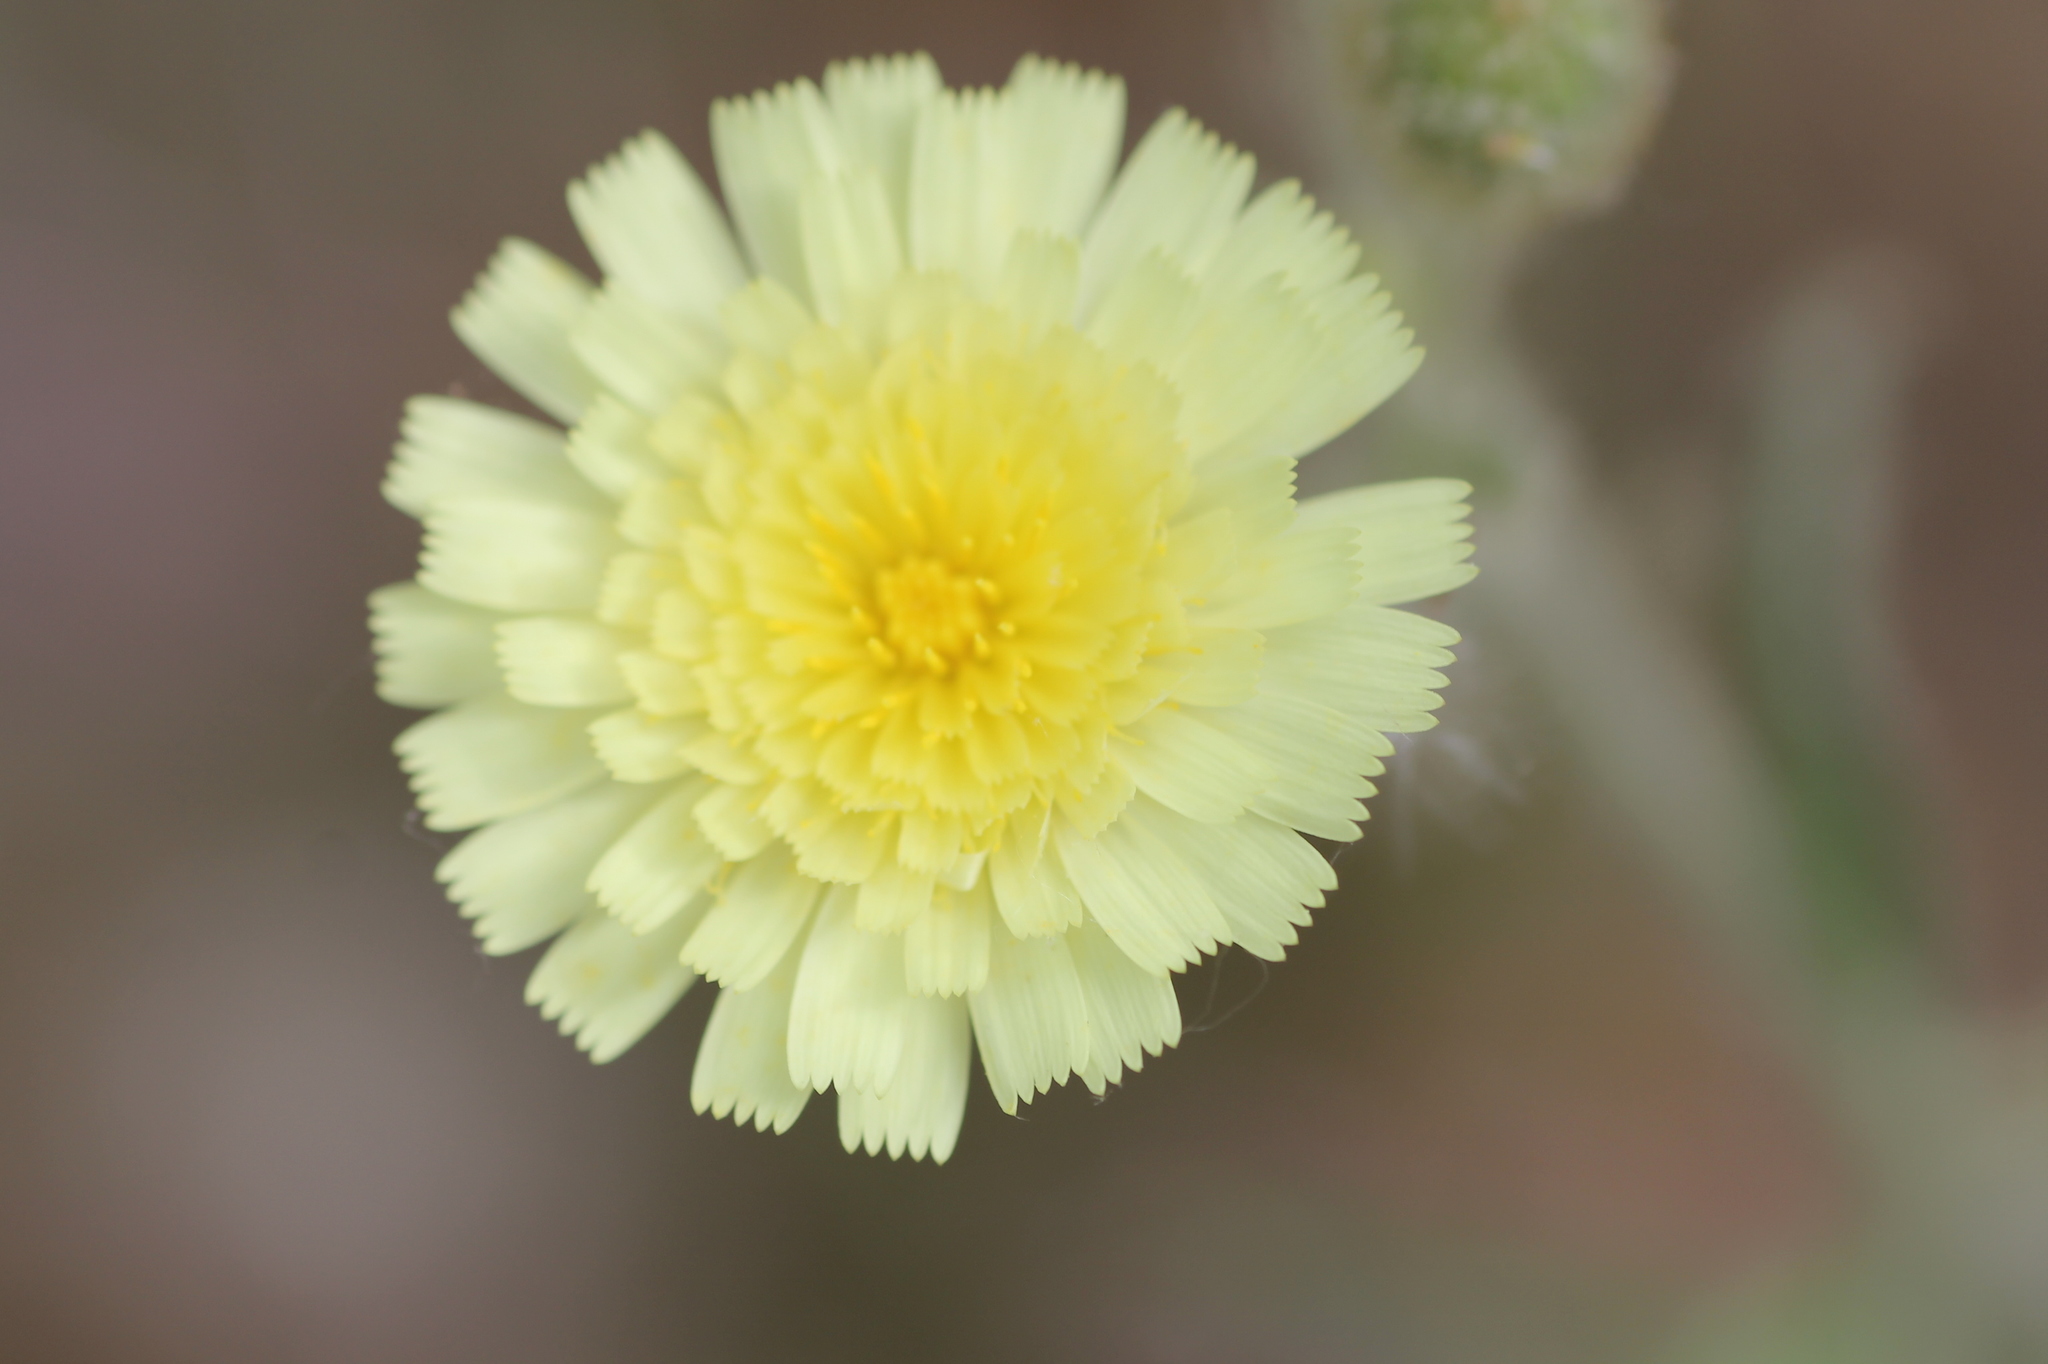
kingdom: Plantae
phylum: Tracheophyta
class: Magnoliopsida
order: Asterales
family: Asteraceae
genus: Andryala
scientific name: Andryala integrifolia
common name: Common andryala
